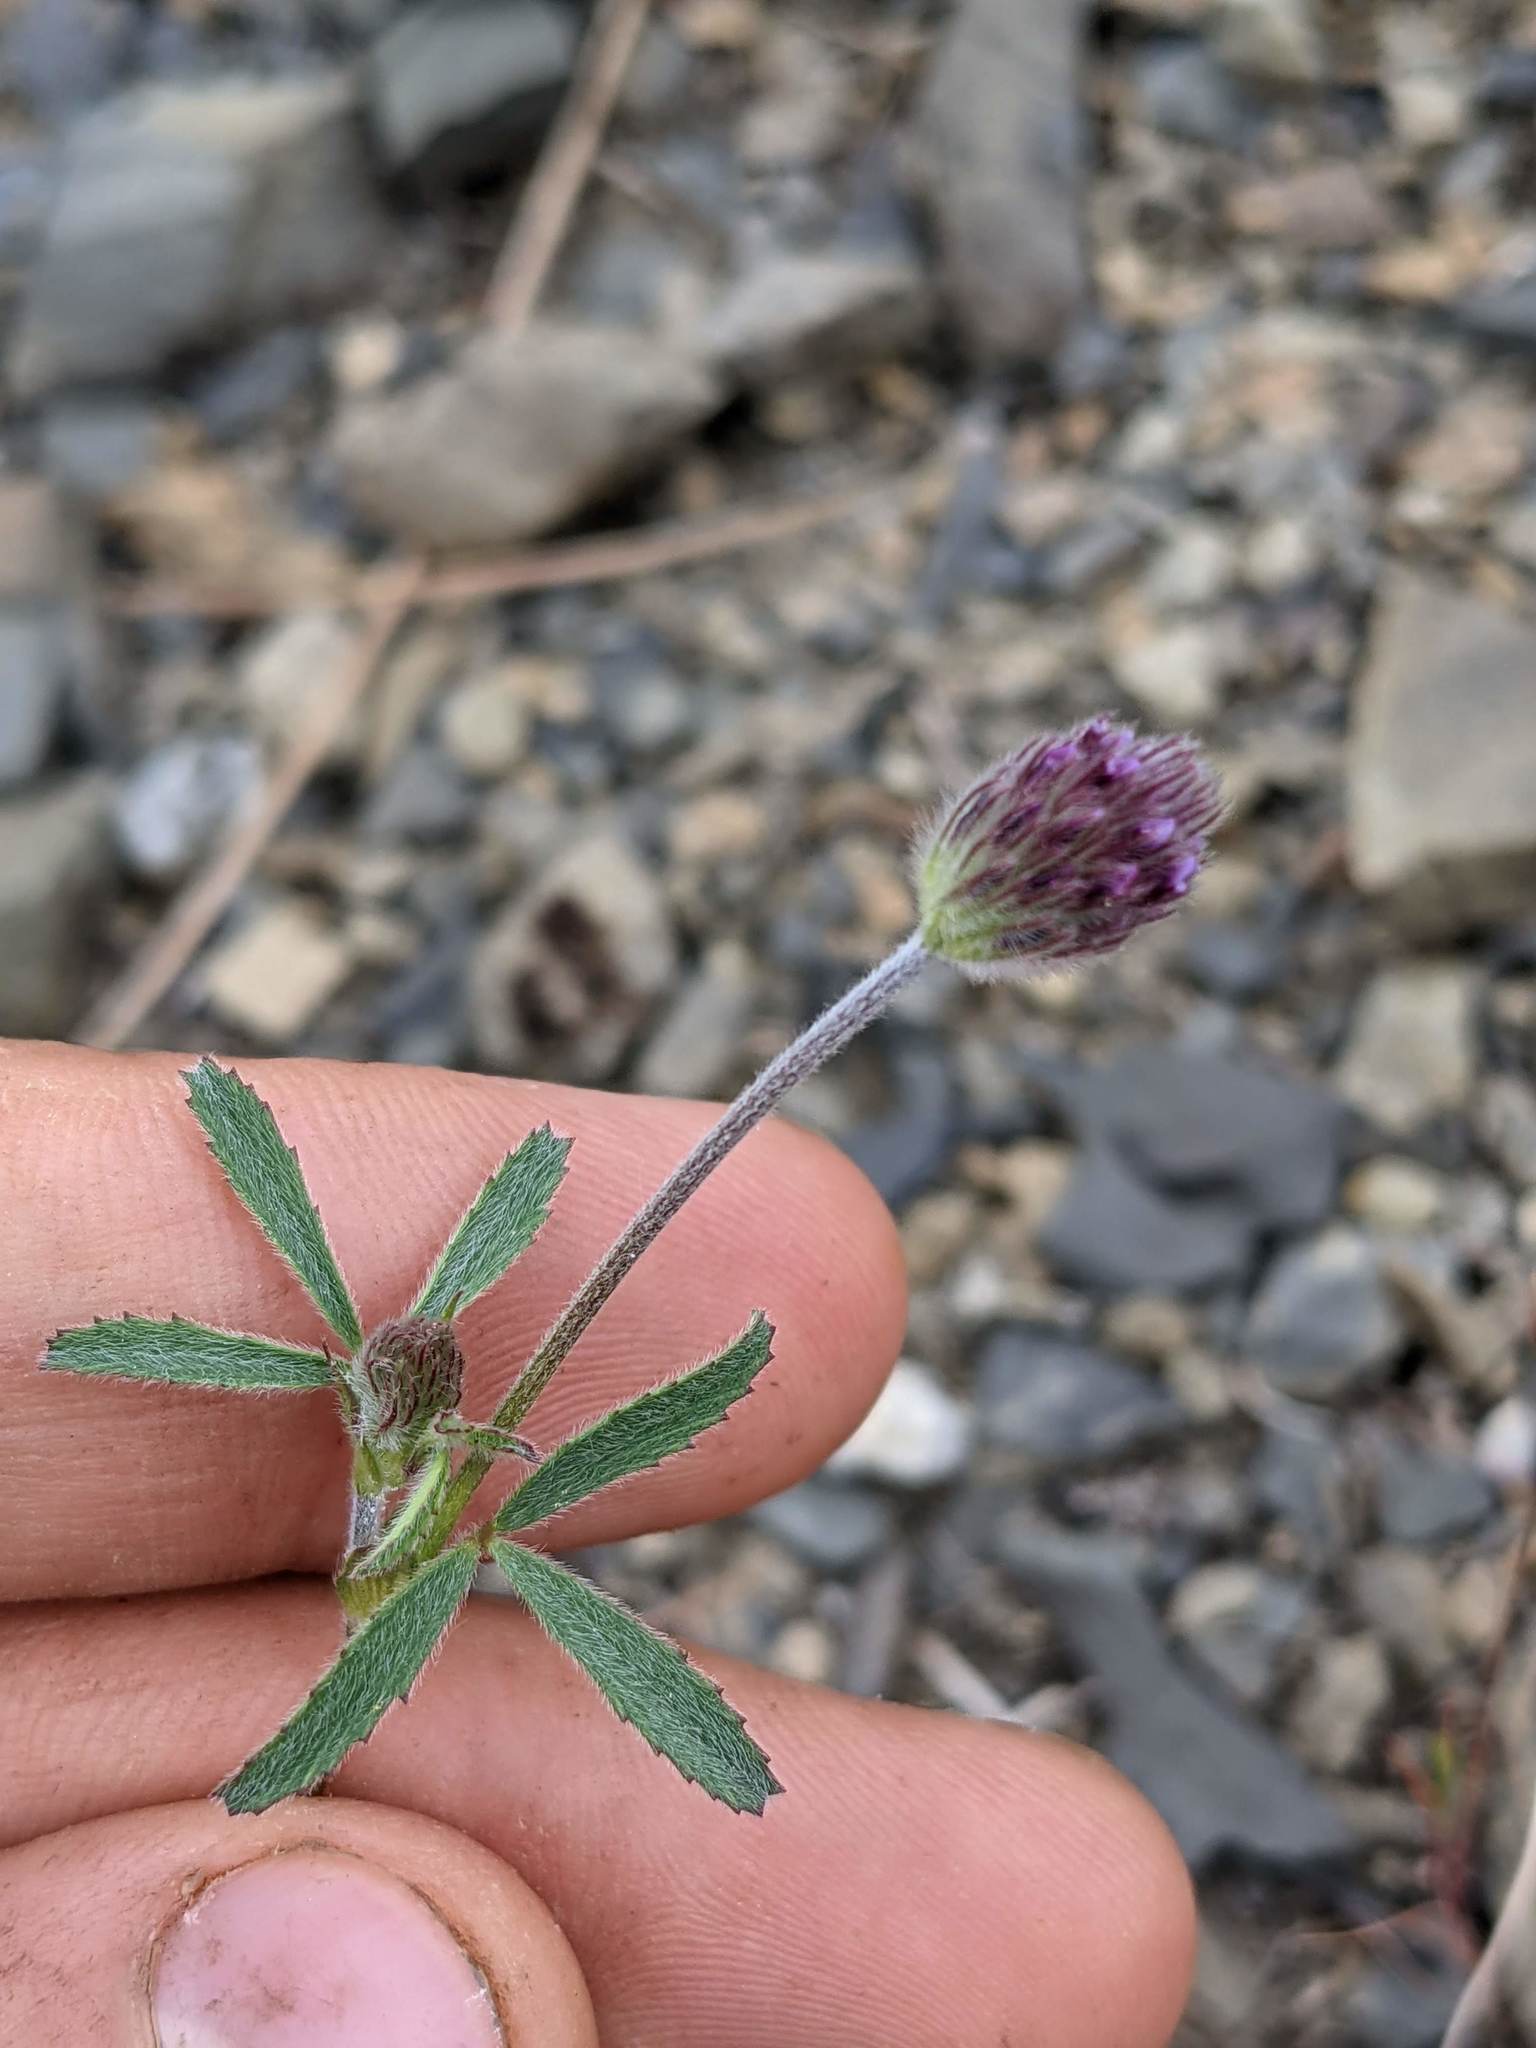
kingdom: Plantae
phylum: Tracheophyta
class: Magnoliopsida
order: Fabales
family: Fabaceae
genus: Trifolium
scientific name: Trifolium albopurpureum
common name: Rancheria clover
